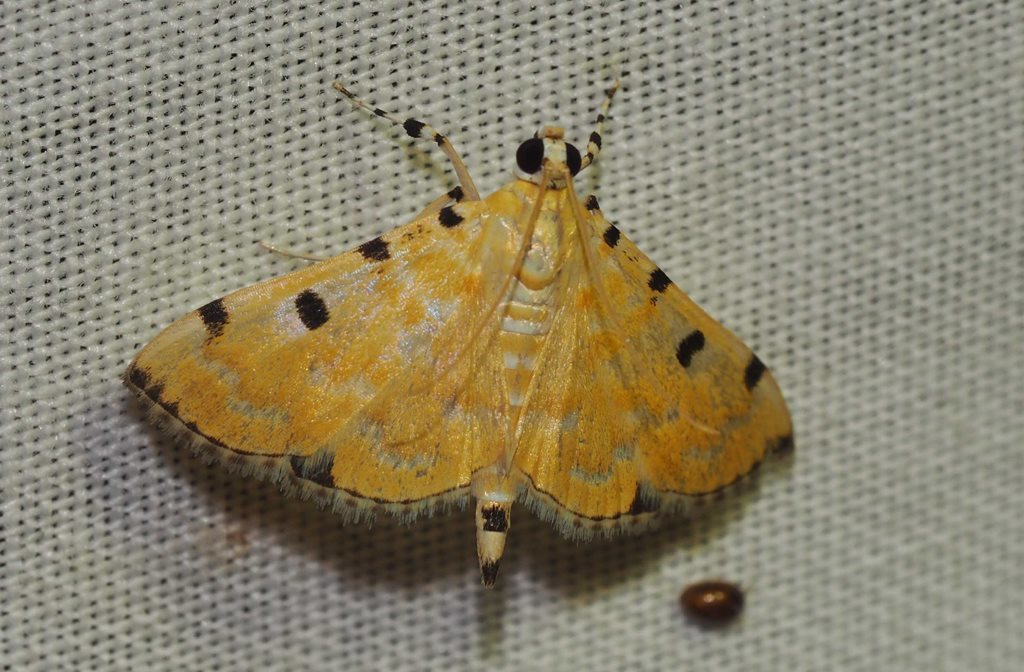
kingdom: Animalia
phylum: Arthropoda
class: Insecta
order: Lepidoptera
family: Crambidae
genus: Notarcha
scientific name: Notarcha polytimeta
